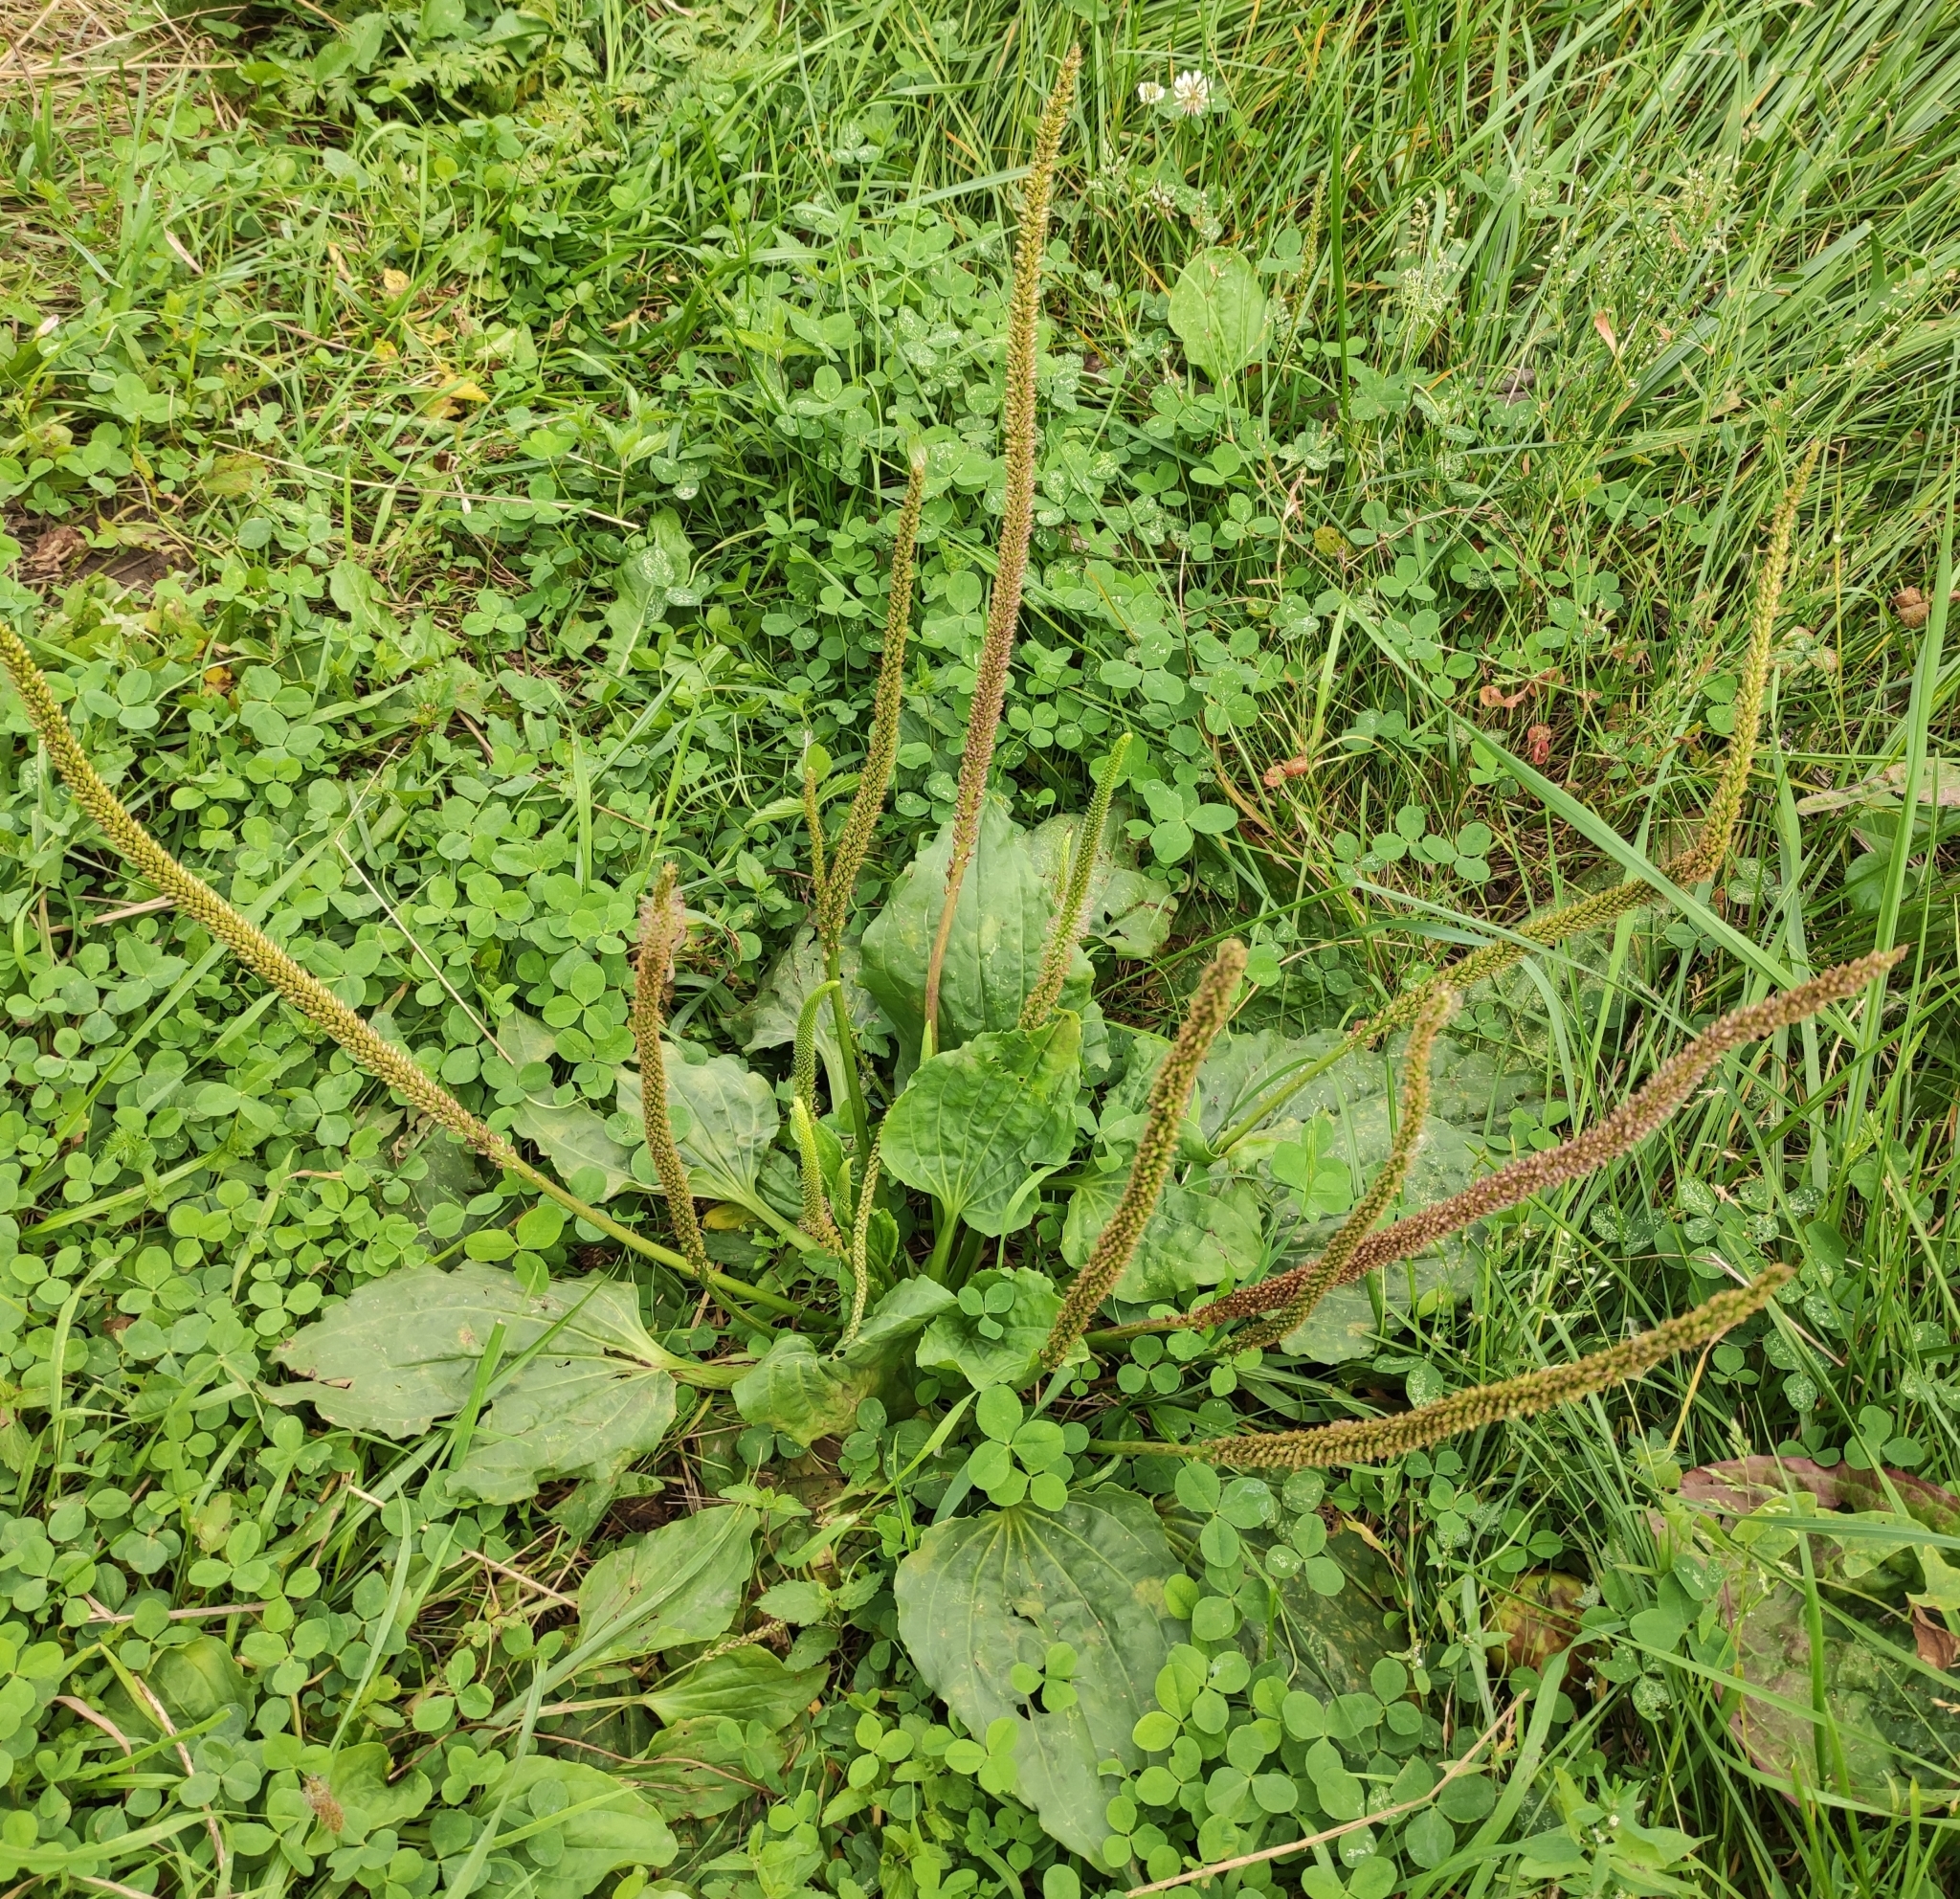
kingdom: Plantae
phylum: Tracheophyta
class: Magnoliopsida
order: Lamiales
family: Plantaginaceae
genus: Plantago
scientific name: Plantago major
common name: Common plantain
